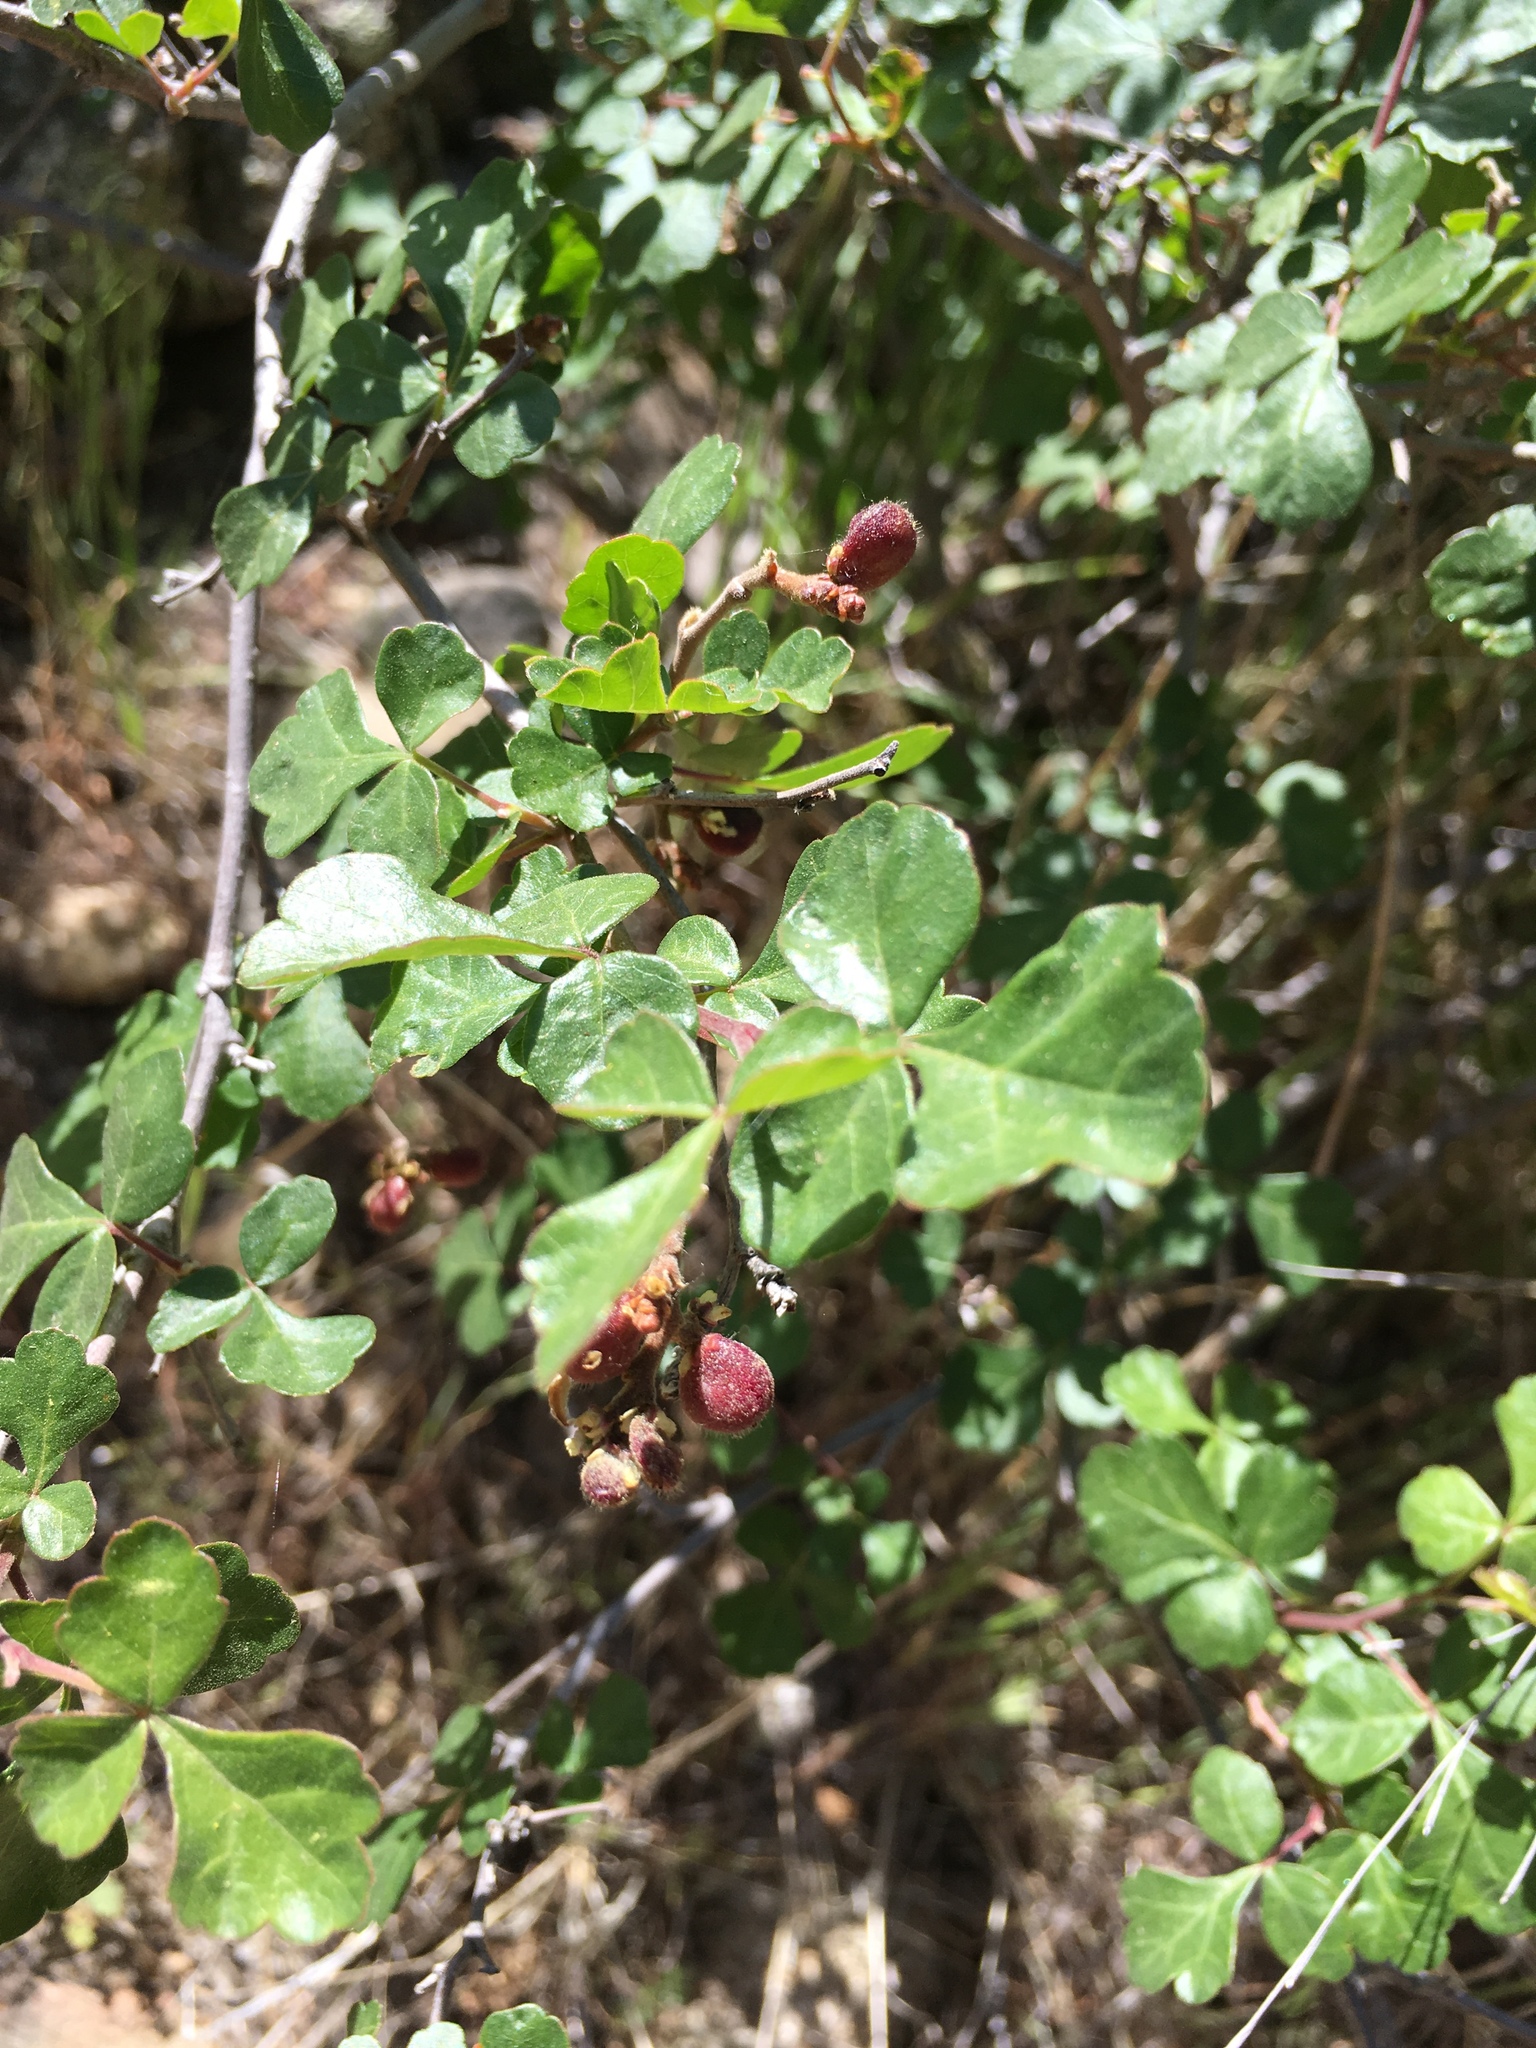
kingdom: Plantae
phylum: Tracheophyta
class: Magnoliopsida
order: Sapindales
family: Anacardiaceae
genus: Rhus
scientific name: Rhus aromatica
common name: Aromatic sumac
